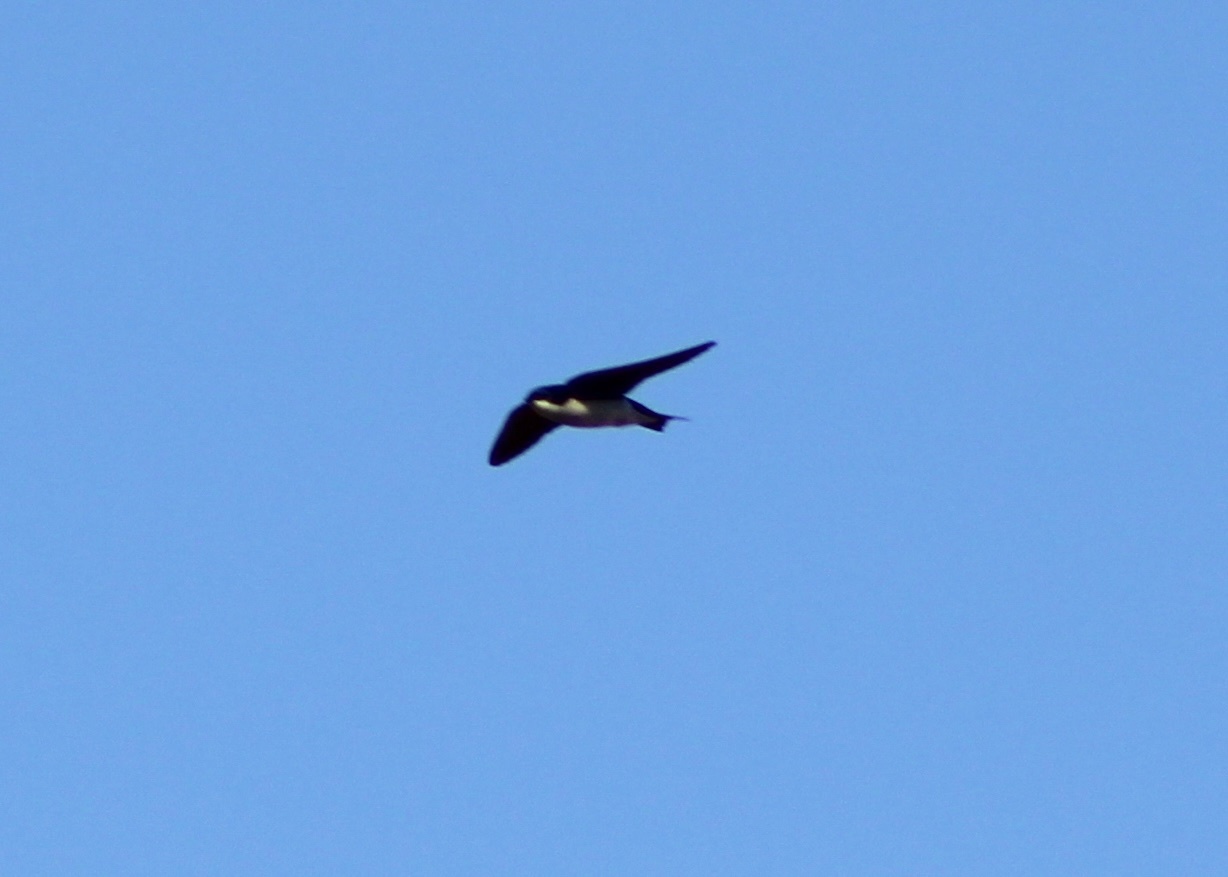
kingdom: Animalia
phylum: Chordata
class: Aves
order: Passeriformes
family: Hirundinidae
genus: Tachycineta
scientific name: Tachycineta bicolor
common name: Tree swallow
